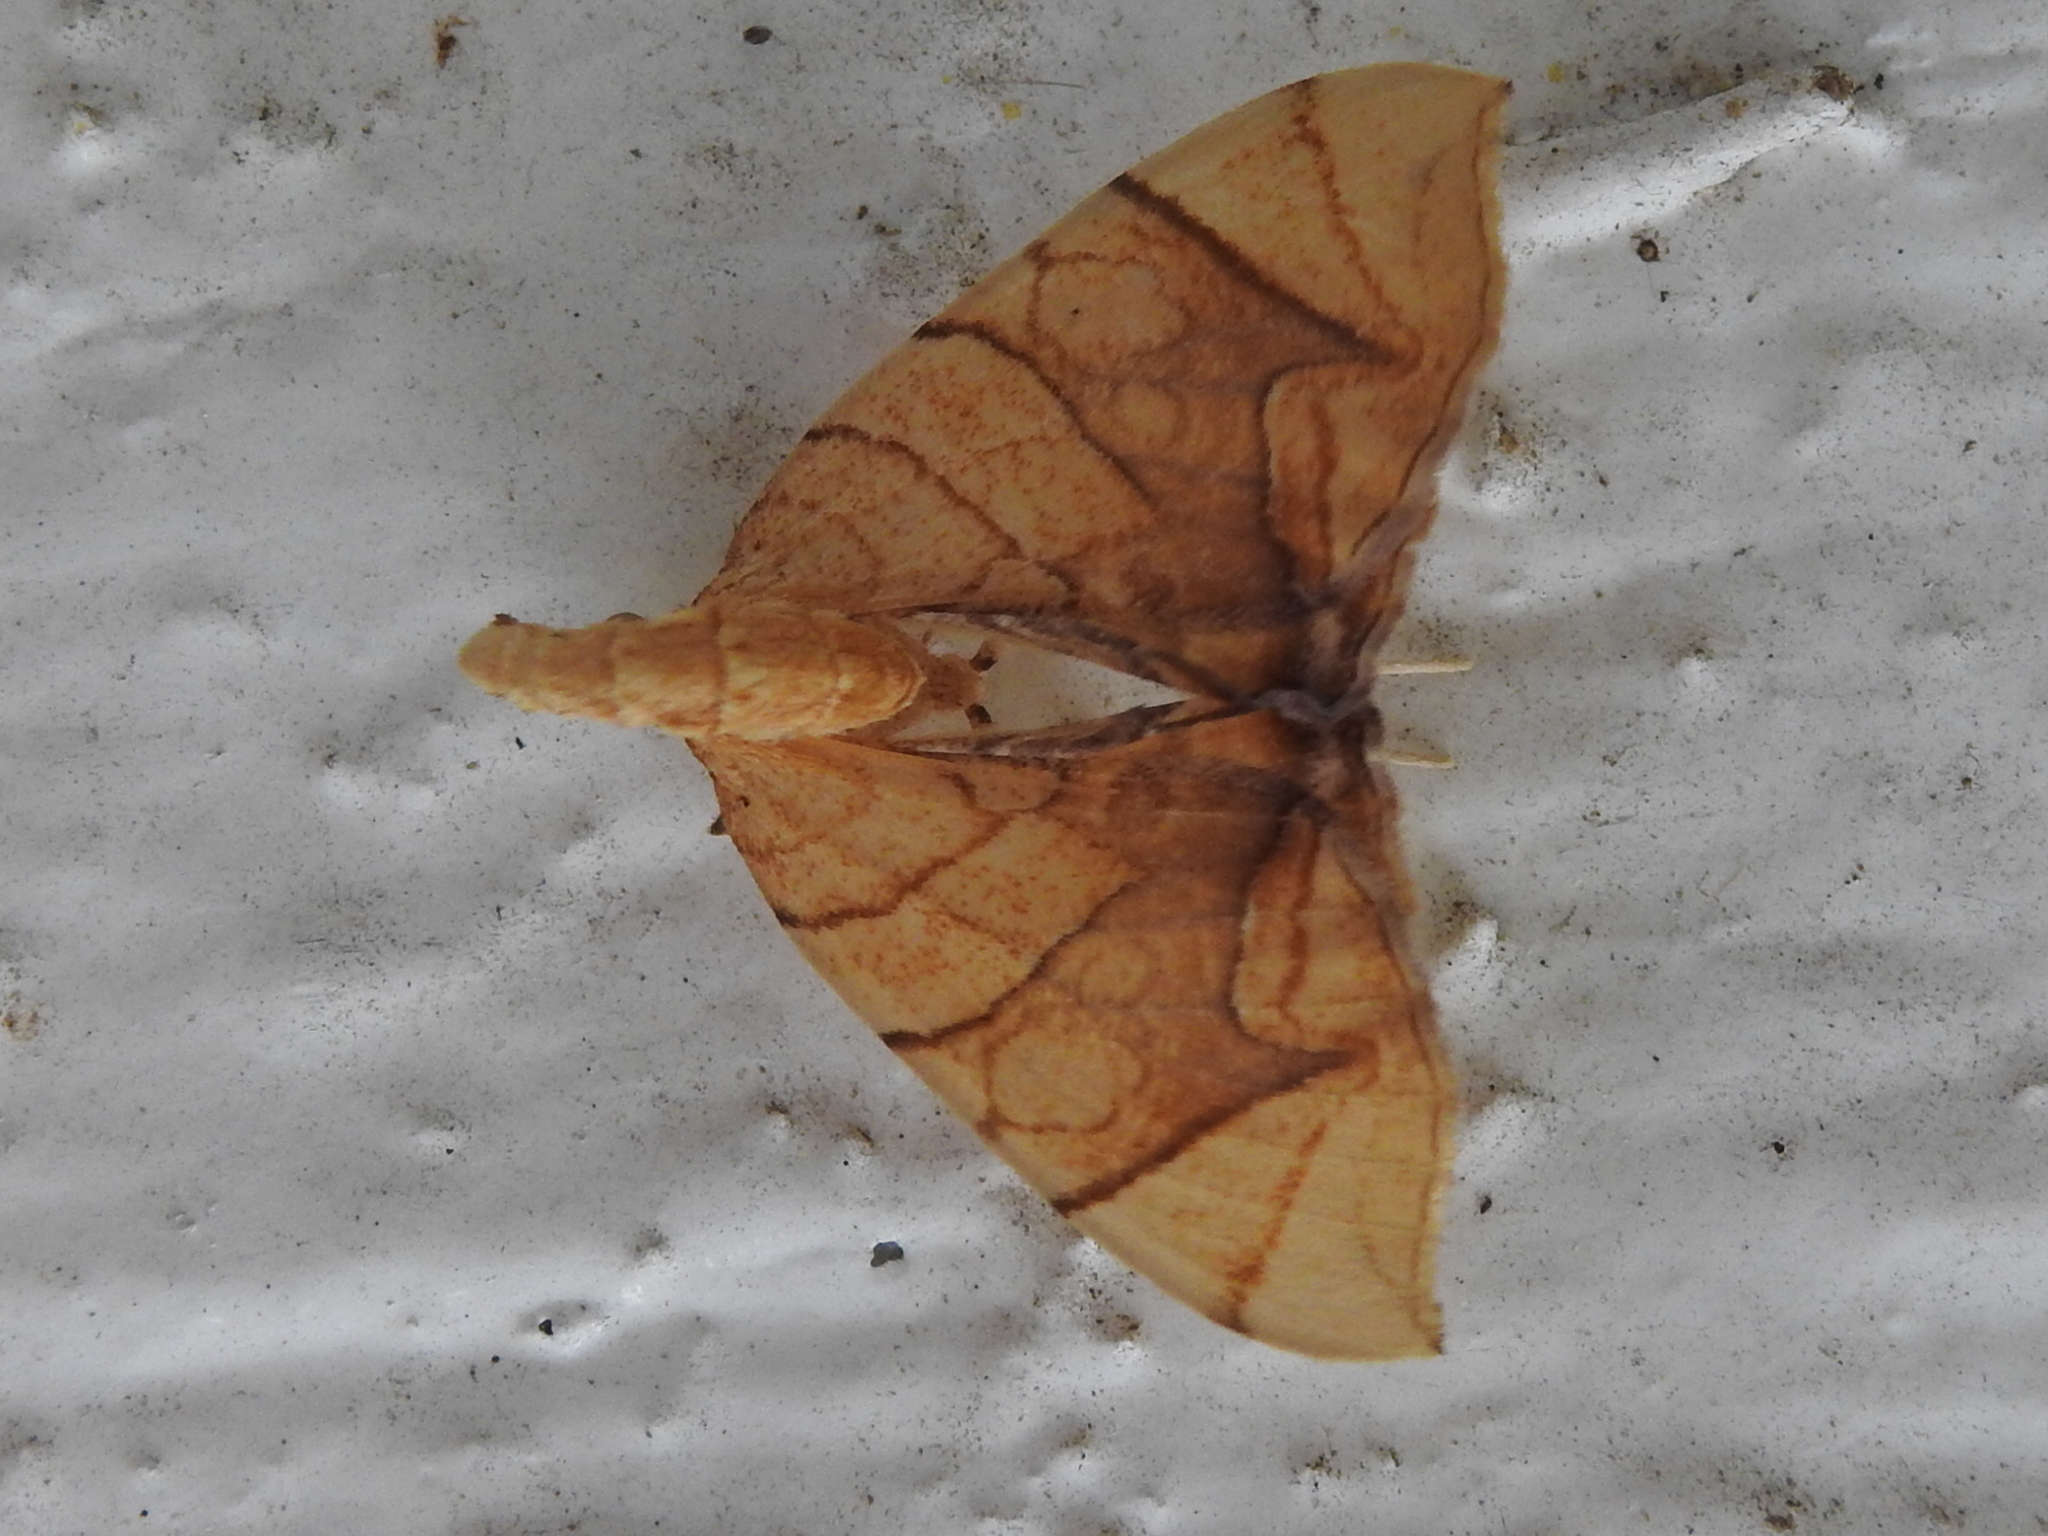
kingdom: Animalia
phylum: Arthropoda
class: Insecta
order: Lepidoptera
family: Geometridae
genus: Eulithis
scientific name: Eulithis
